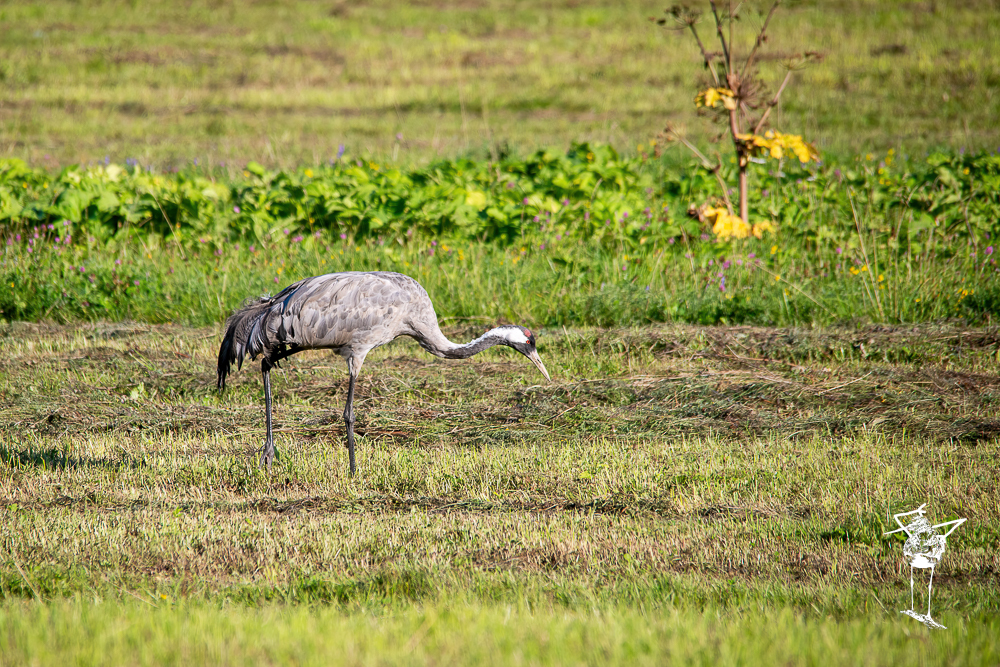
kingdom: Animalia
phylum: Chordata
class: Aves
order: Gruiformes
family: Gruidae
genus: Grus
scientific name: Grus grus
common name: Common crane
